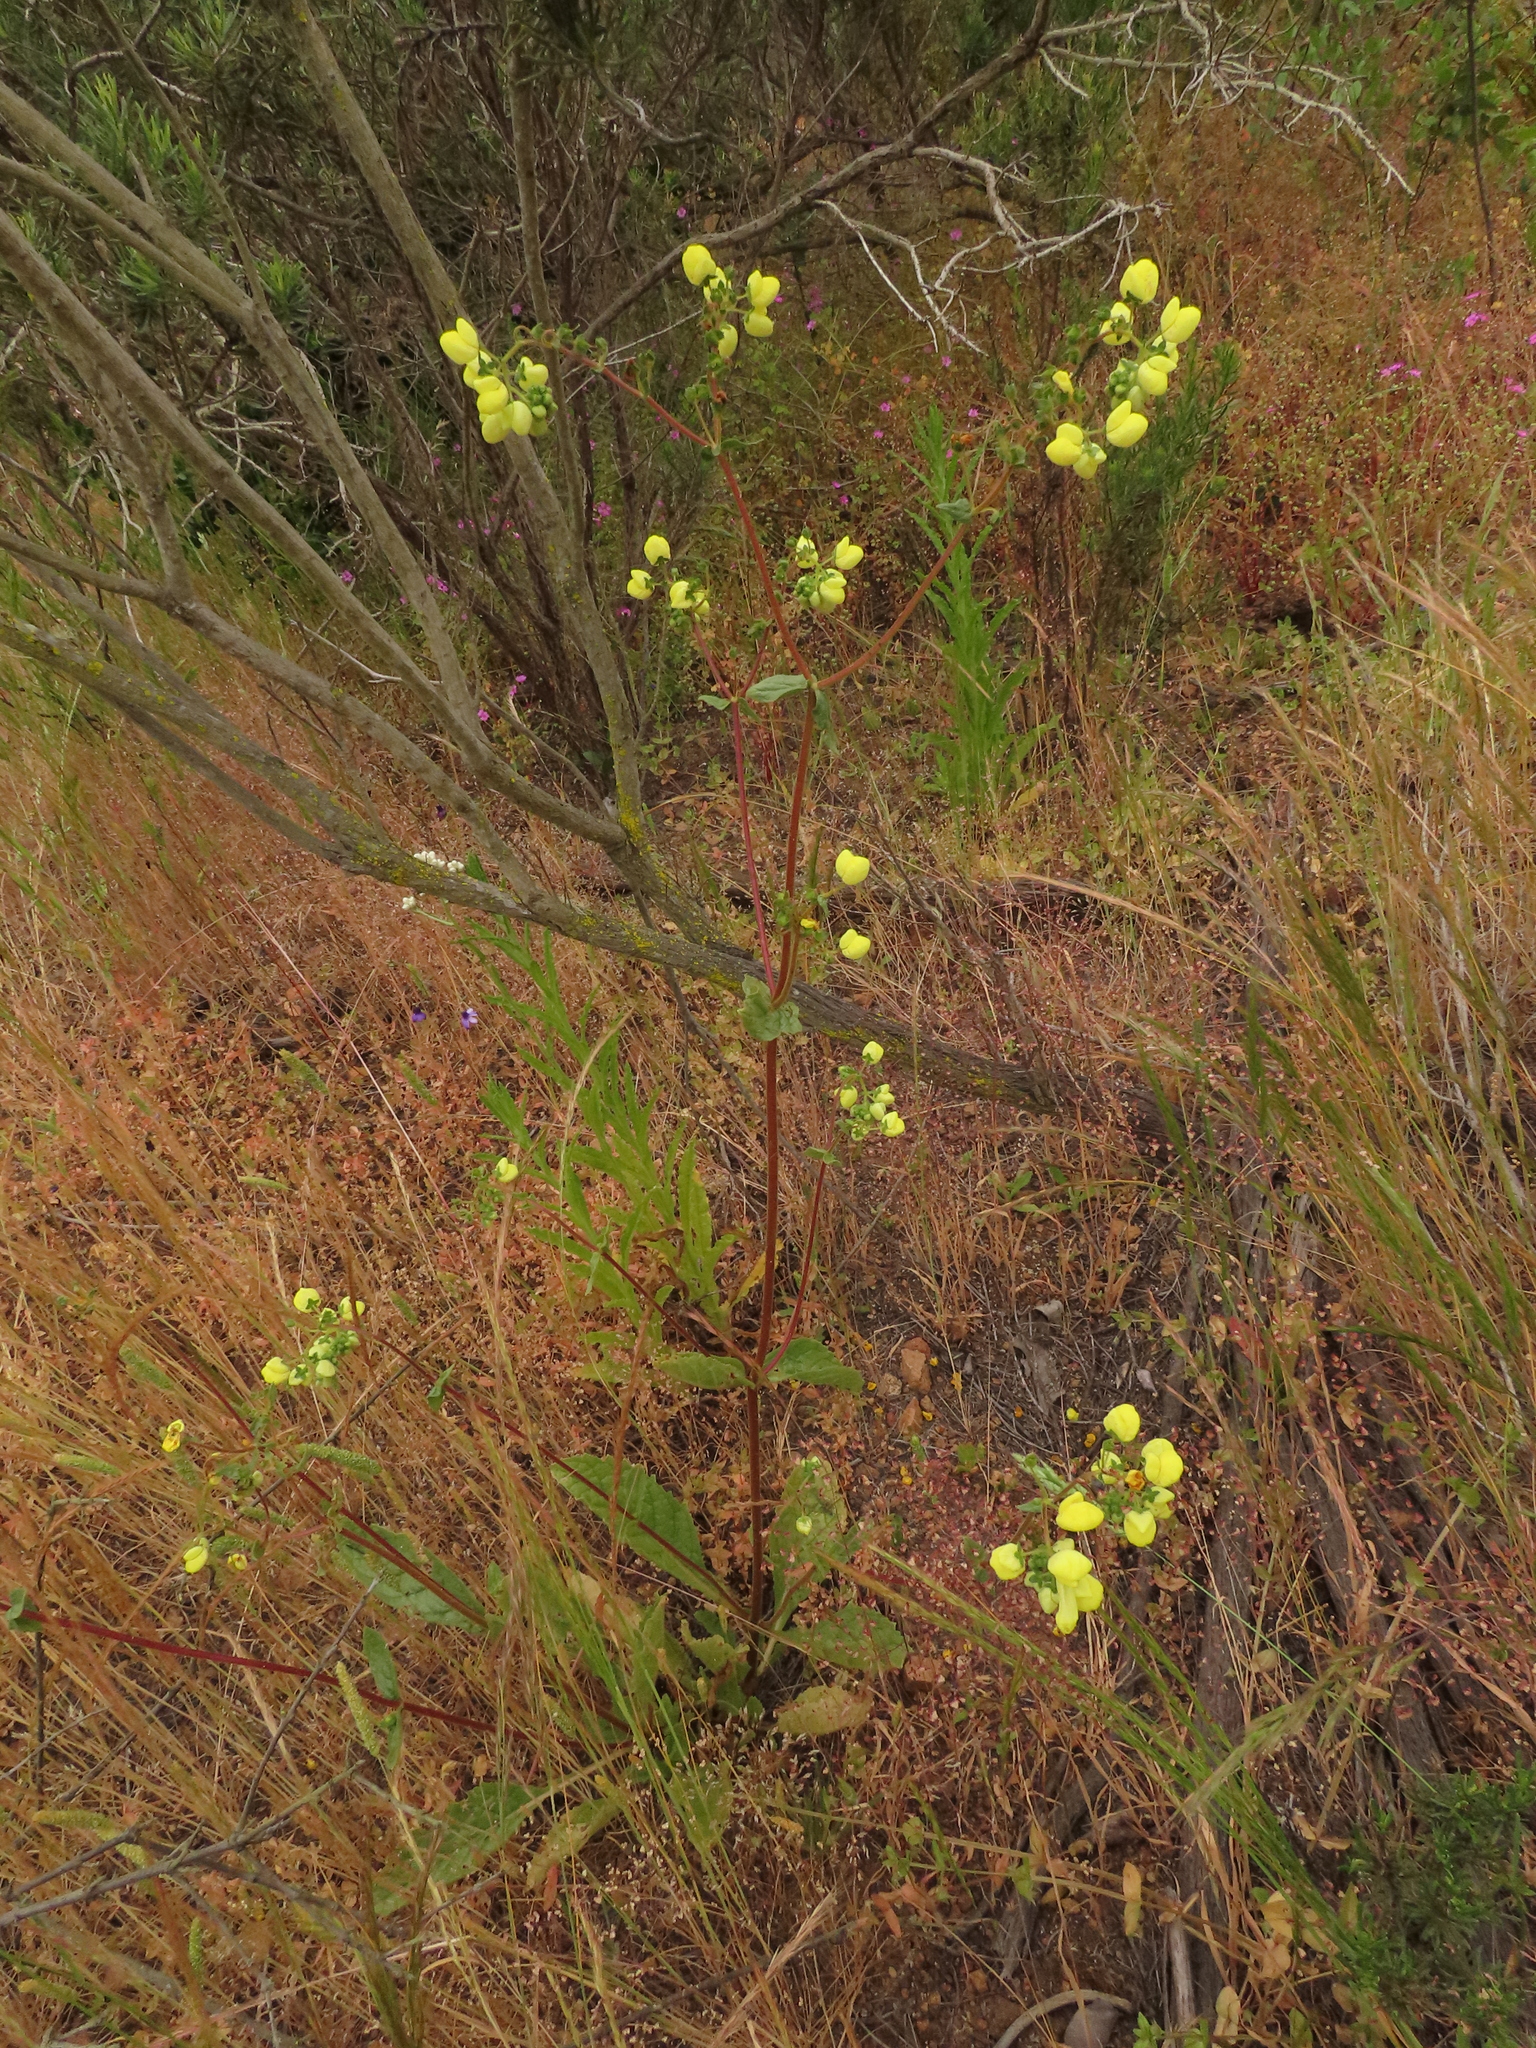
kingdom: Plantae
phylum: Tracheophyta
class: Magnoliopsida
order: Lamiales
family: Calceolariaceae
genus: Calceolaria
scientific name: Calceolaria glandulosa
